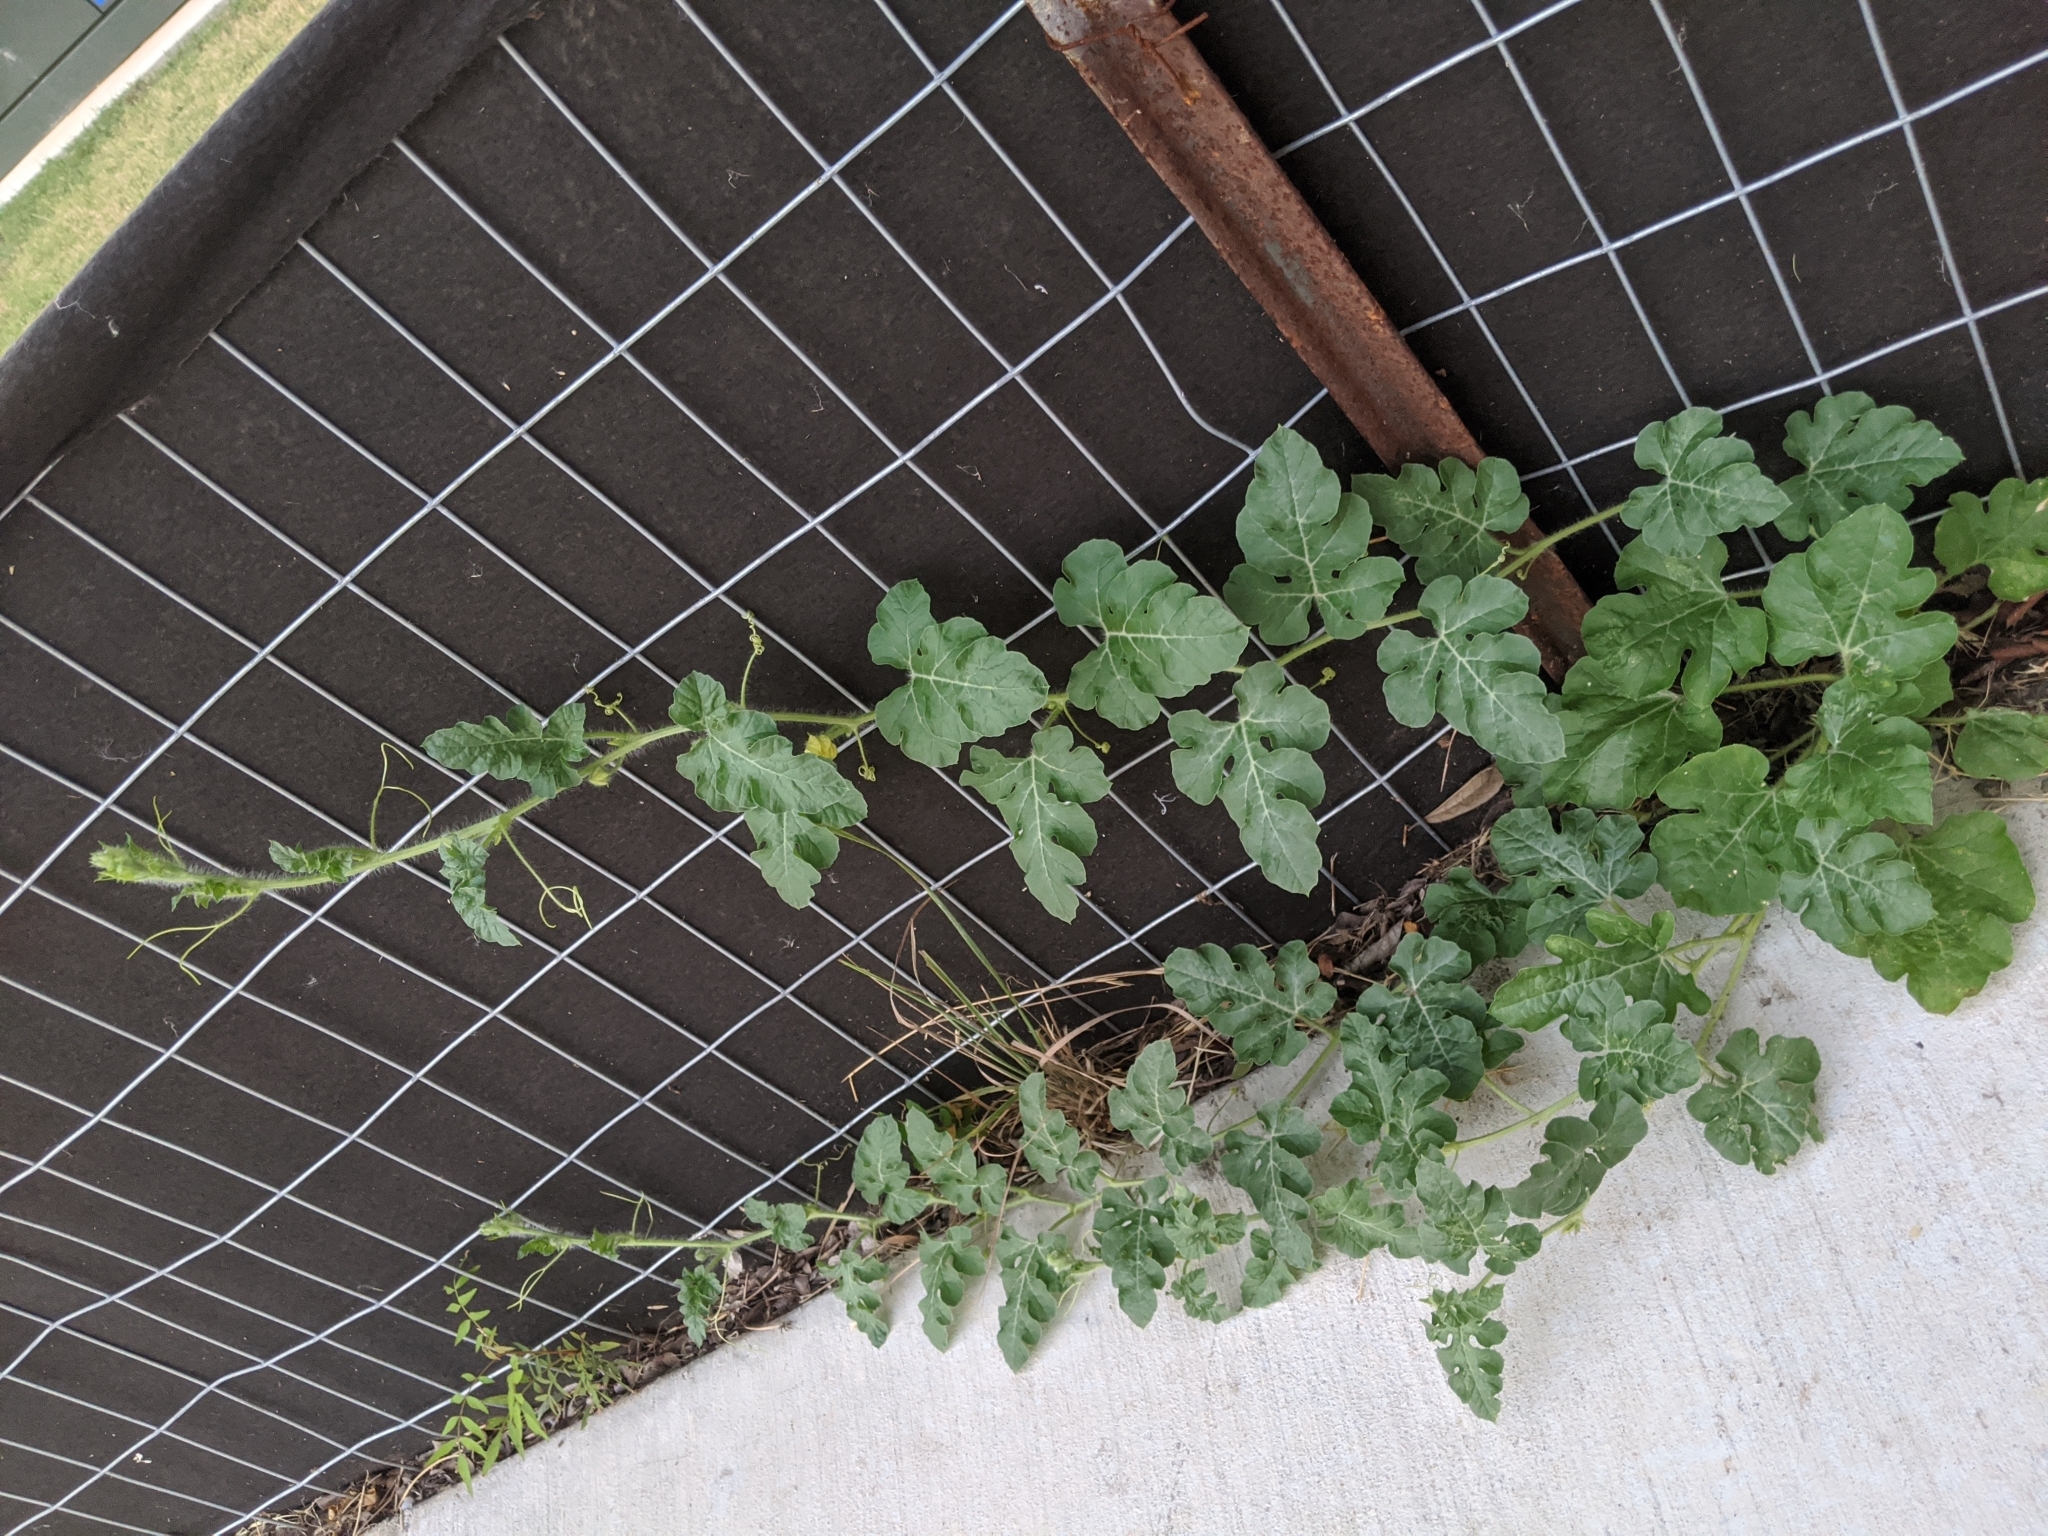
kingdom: Plantae
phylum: Tracheophyta
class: Magnoliopsida
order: Cucurbitales
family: Cucurbitaceae
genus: Citrullus
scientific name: Citrullus lanatus
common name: Watermelon
